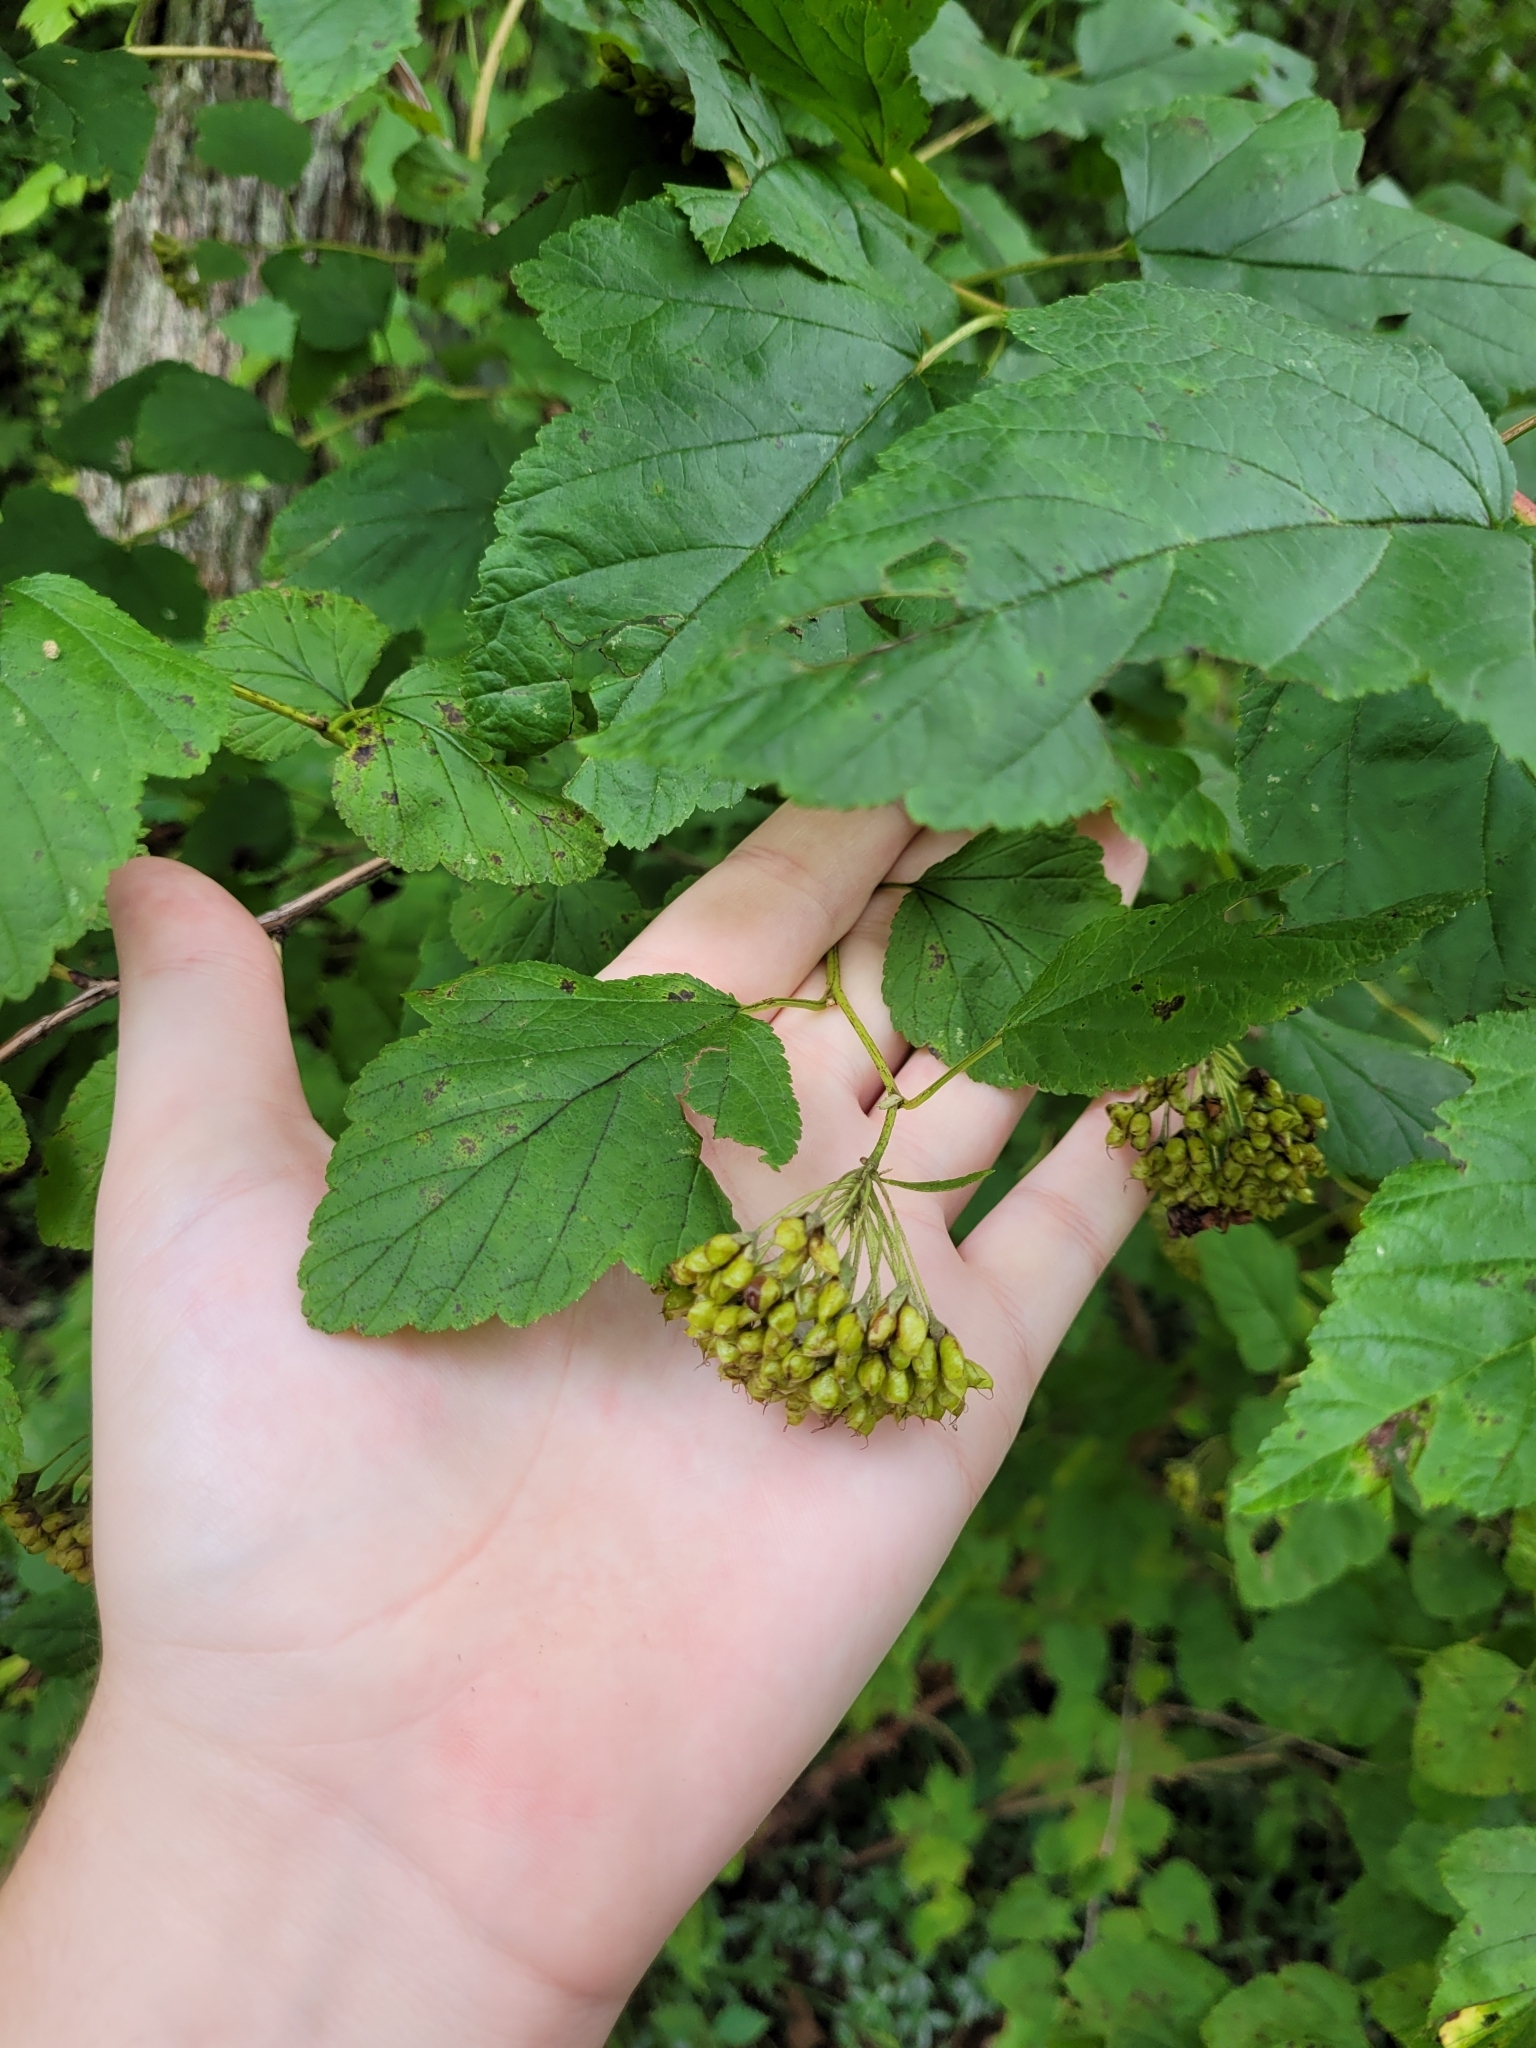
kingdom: Plantae
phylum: Tracheophyta
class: Magnoliopsida
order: Rosales
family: Rosaceae
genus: Physocarpus
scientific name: Physocarpus opulifolius
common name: Ninebark
